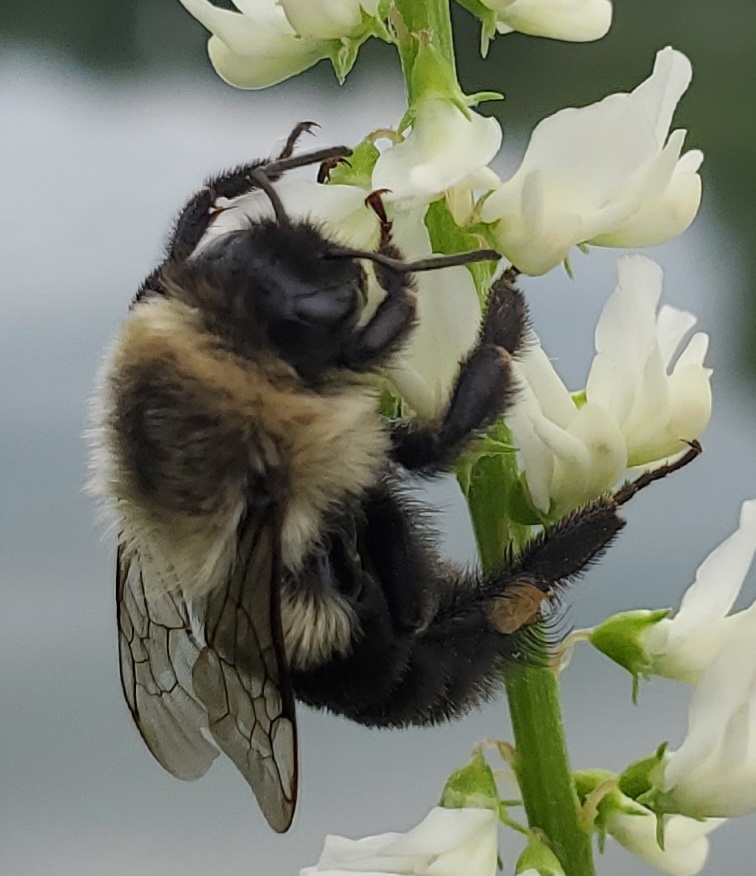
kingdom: Animalia
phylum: Arthropoda
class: Insecta
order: Hymenoptera
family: Apidae
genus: Bombus
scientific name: Bombus impatiens
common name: Common eastern bumble bee
